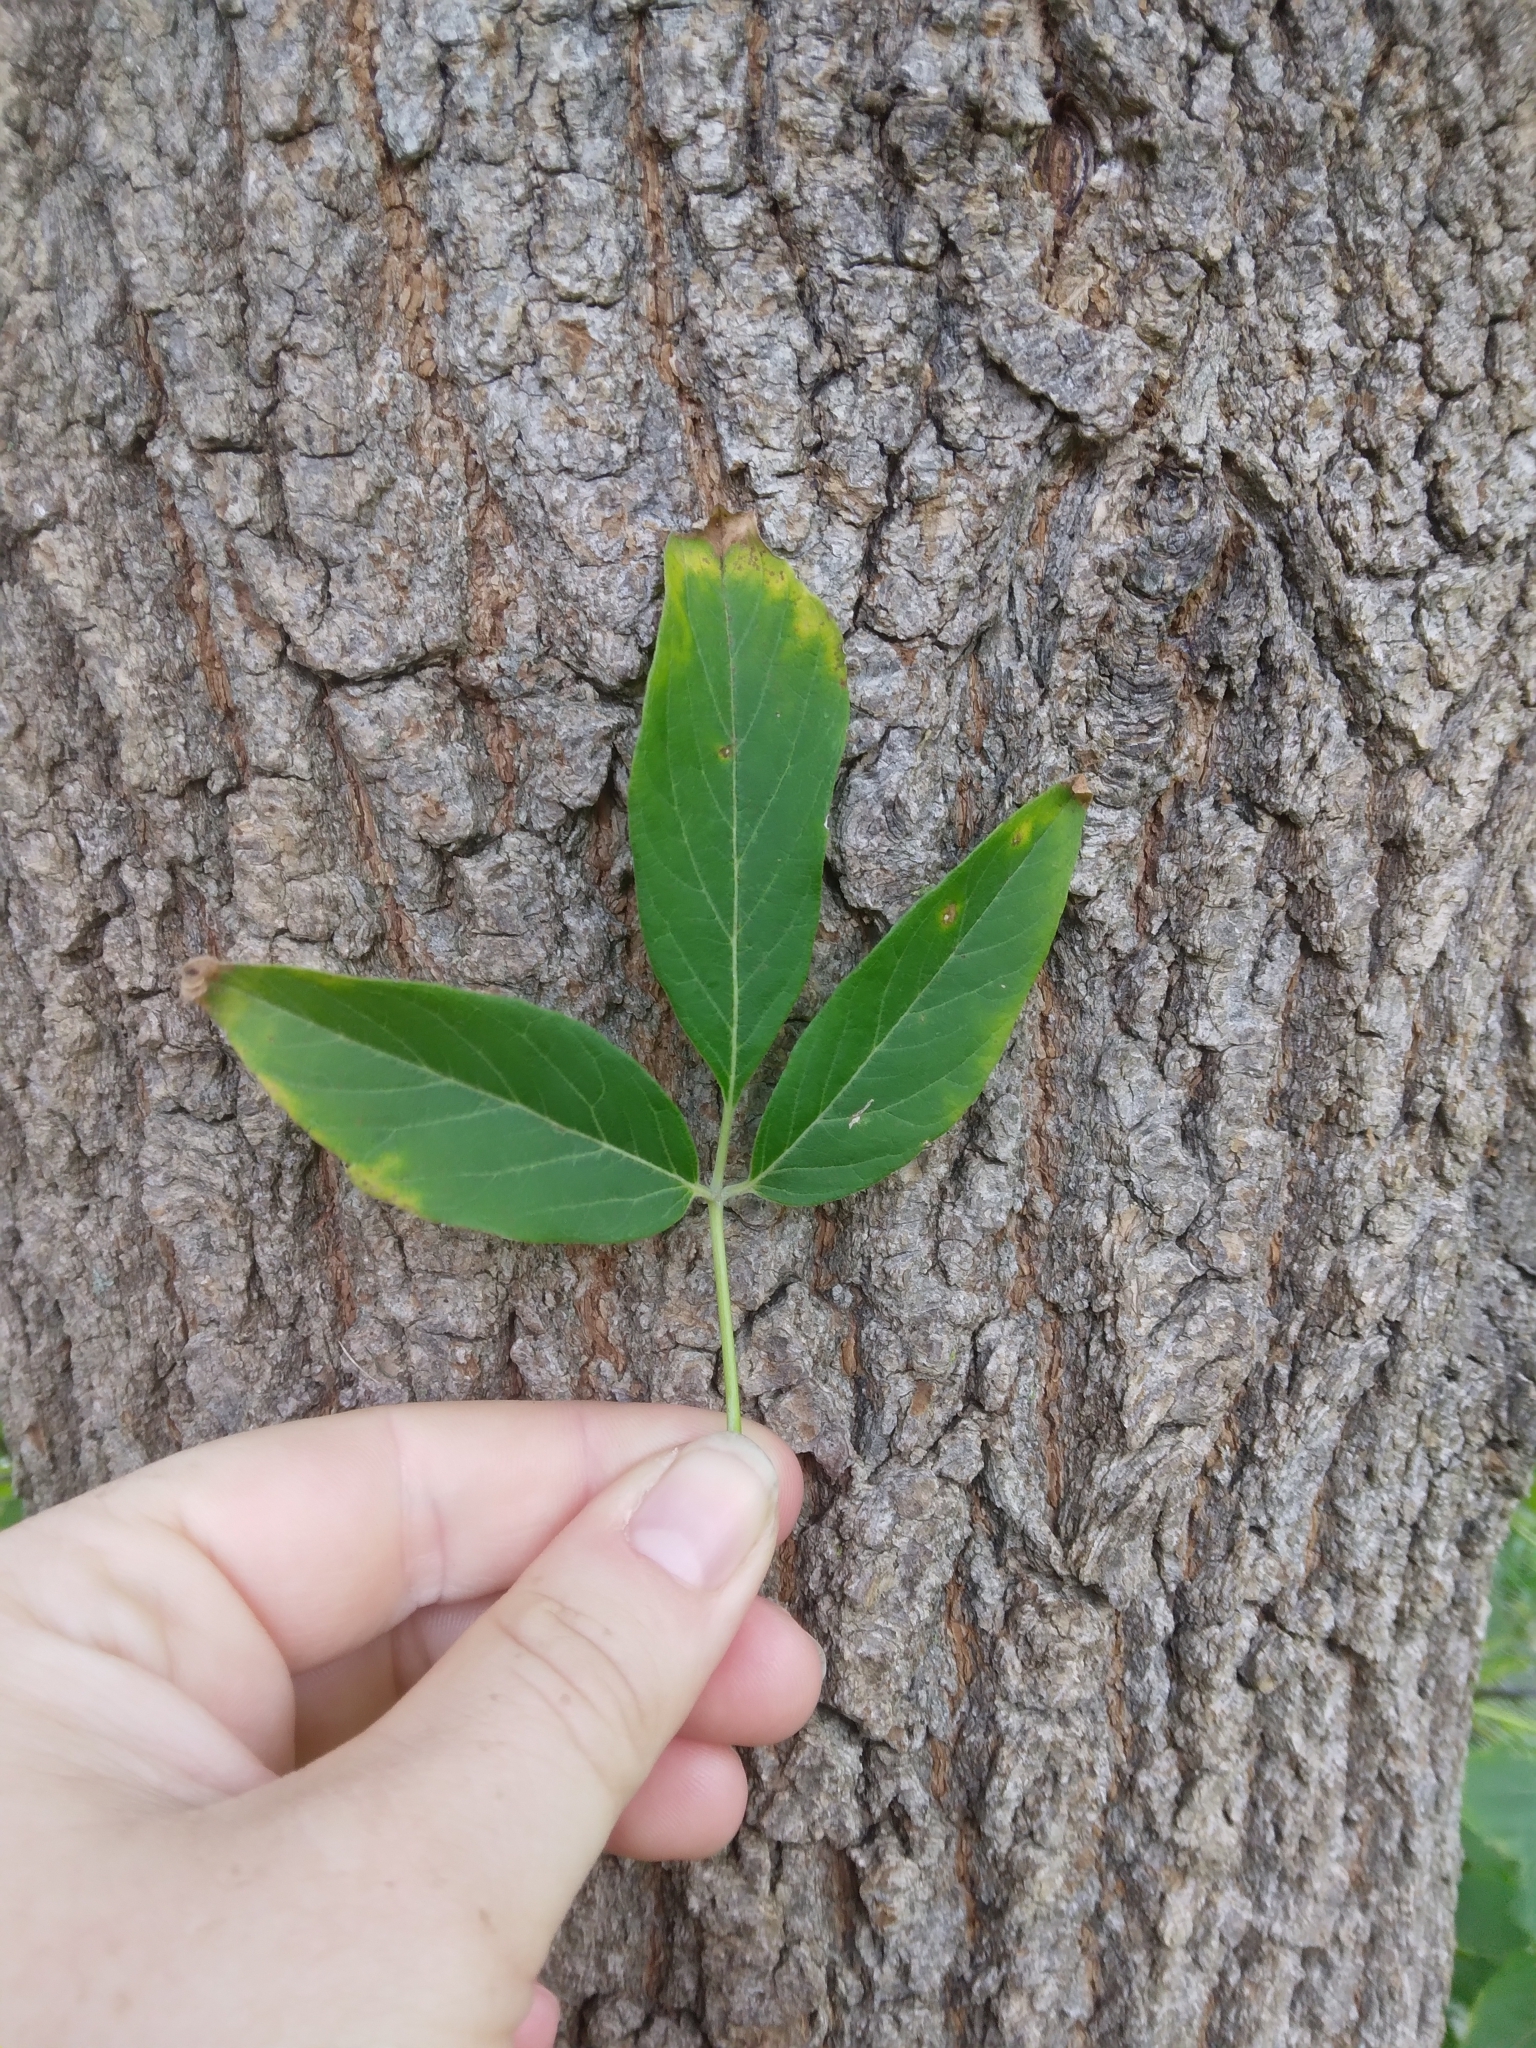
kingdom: Plantae
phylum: Tracheophyta
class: Magnoliopsida
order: Sapindales
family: Sapindaceae
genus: Acer
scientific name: Acer negundo
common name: Ashleaf maple
